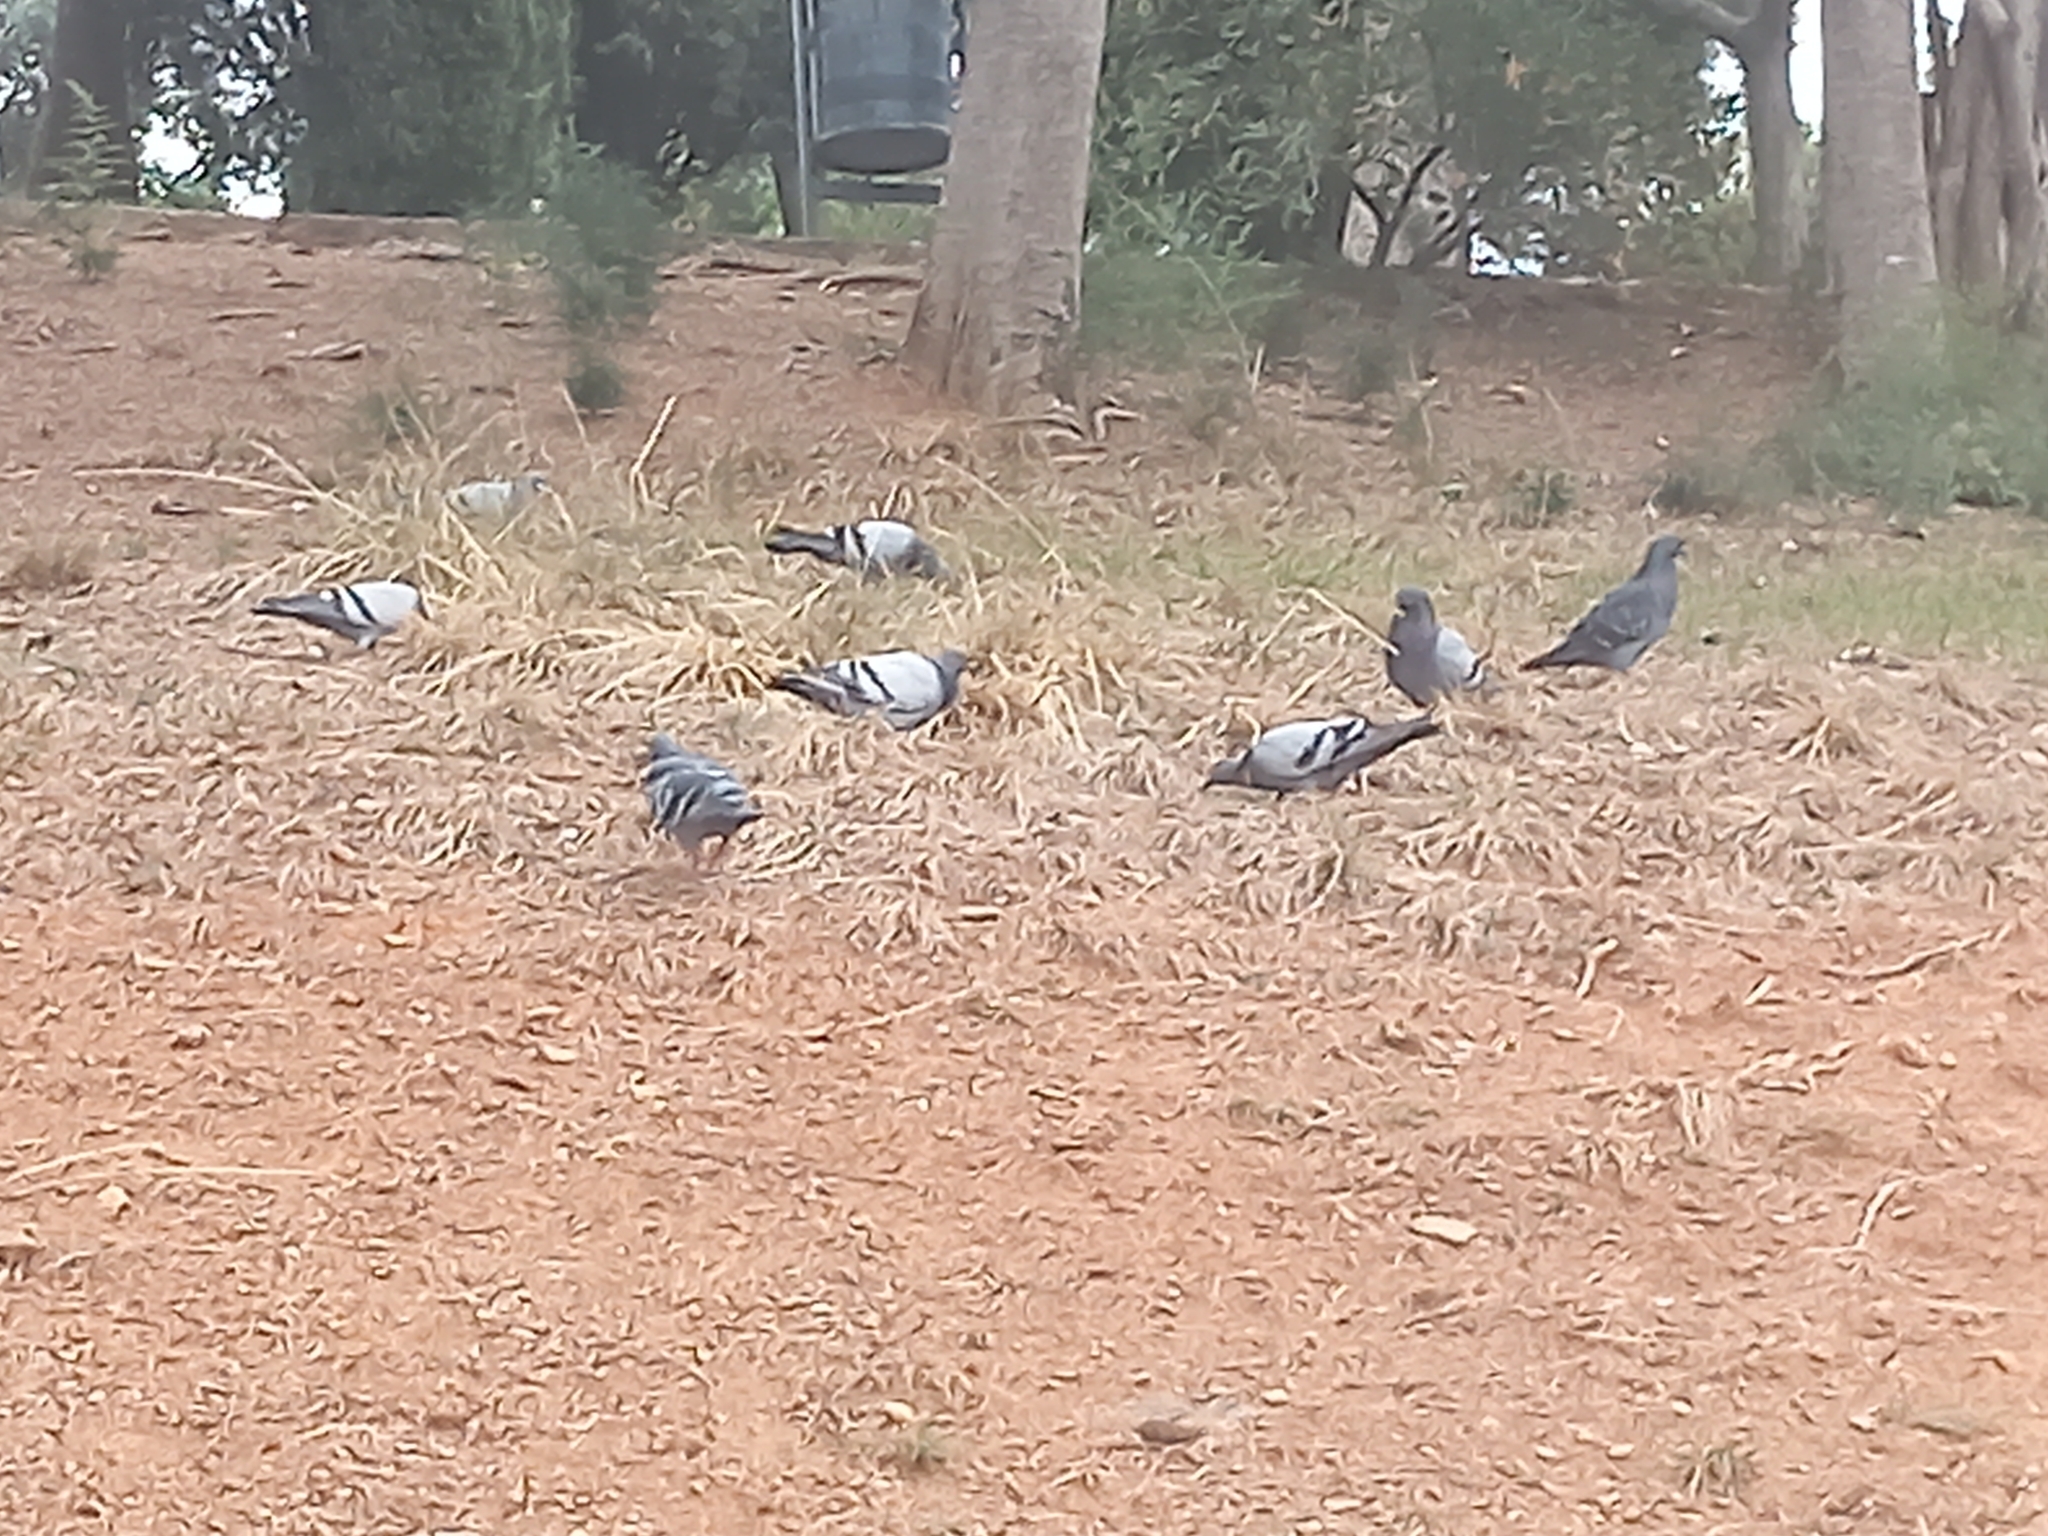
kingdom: Animalia
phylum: Chordata
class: Aves
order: Columbiformes
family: Columbidae
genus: Columba
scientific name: Columba livia
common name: Rock pigeon
